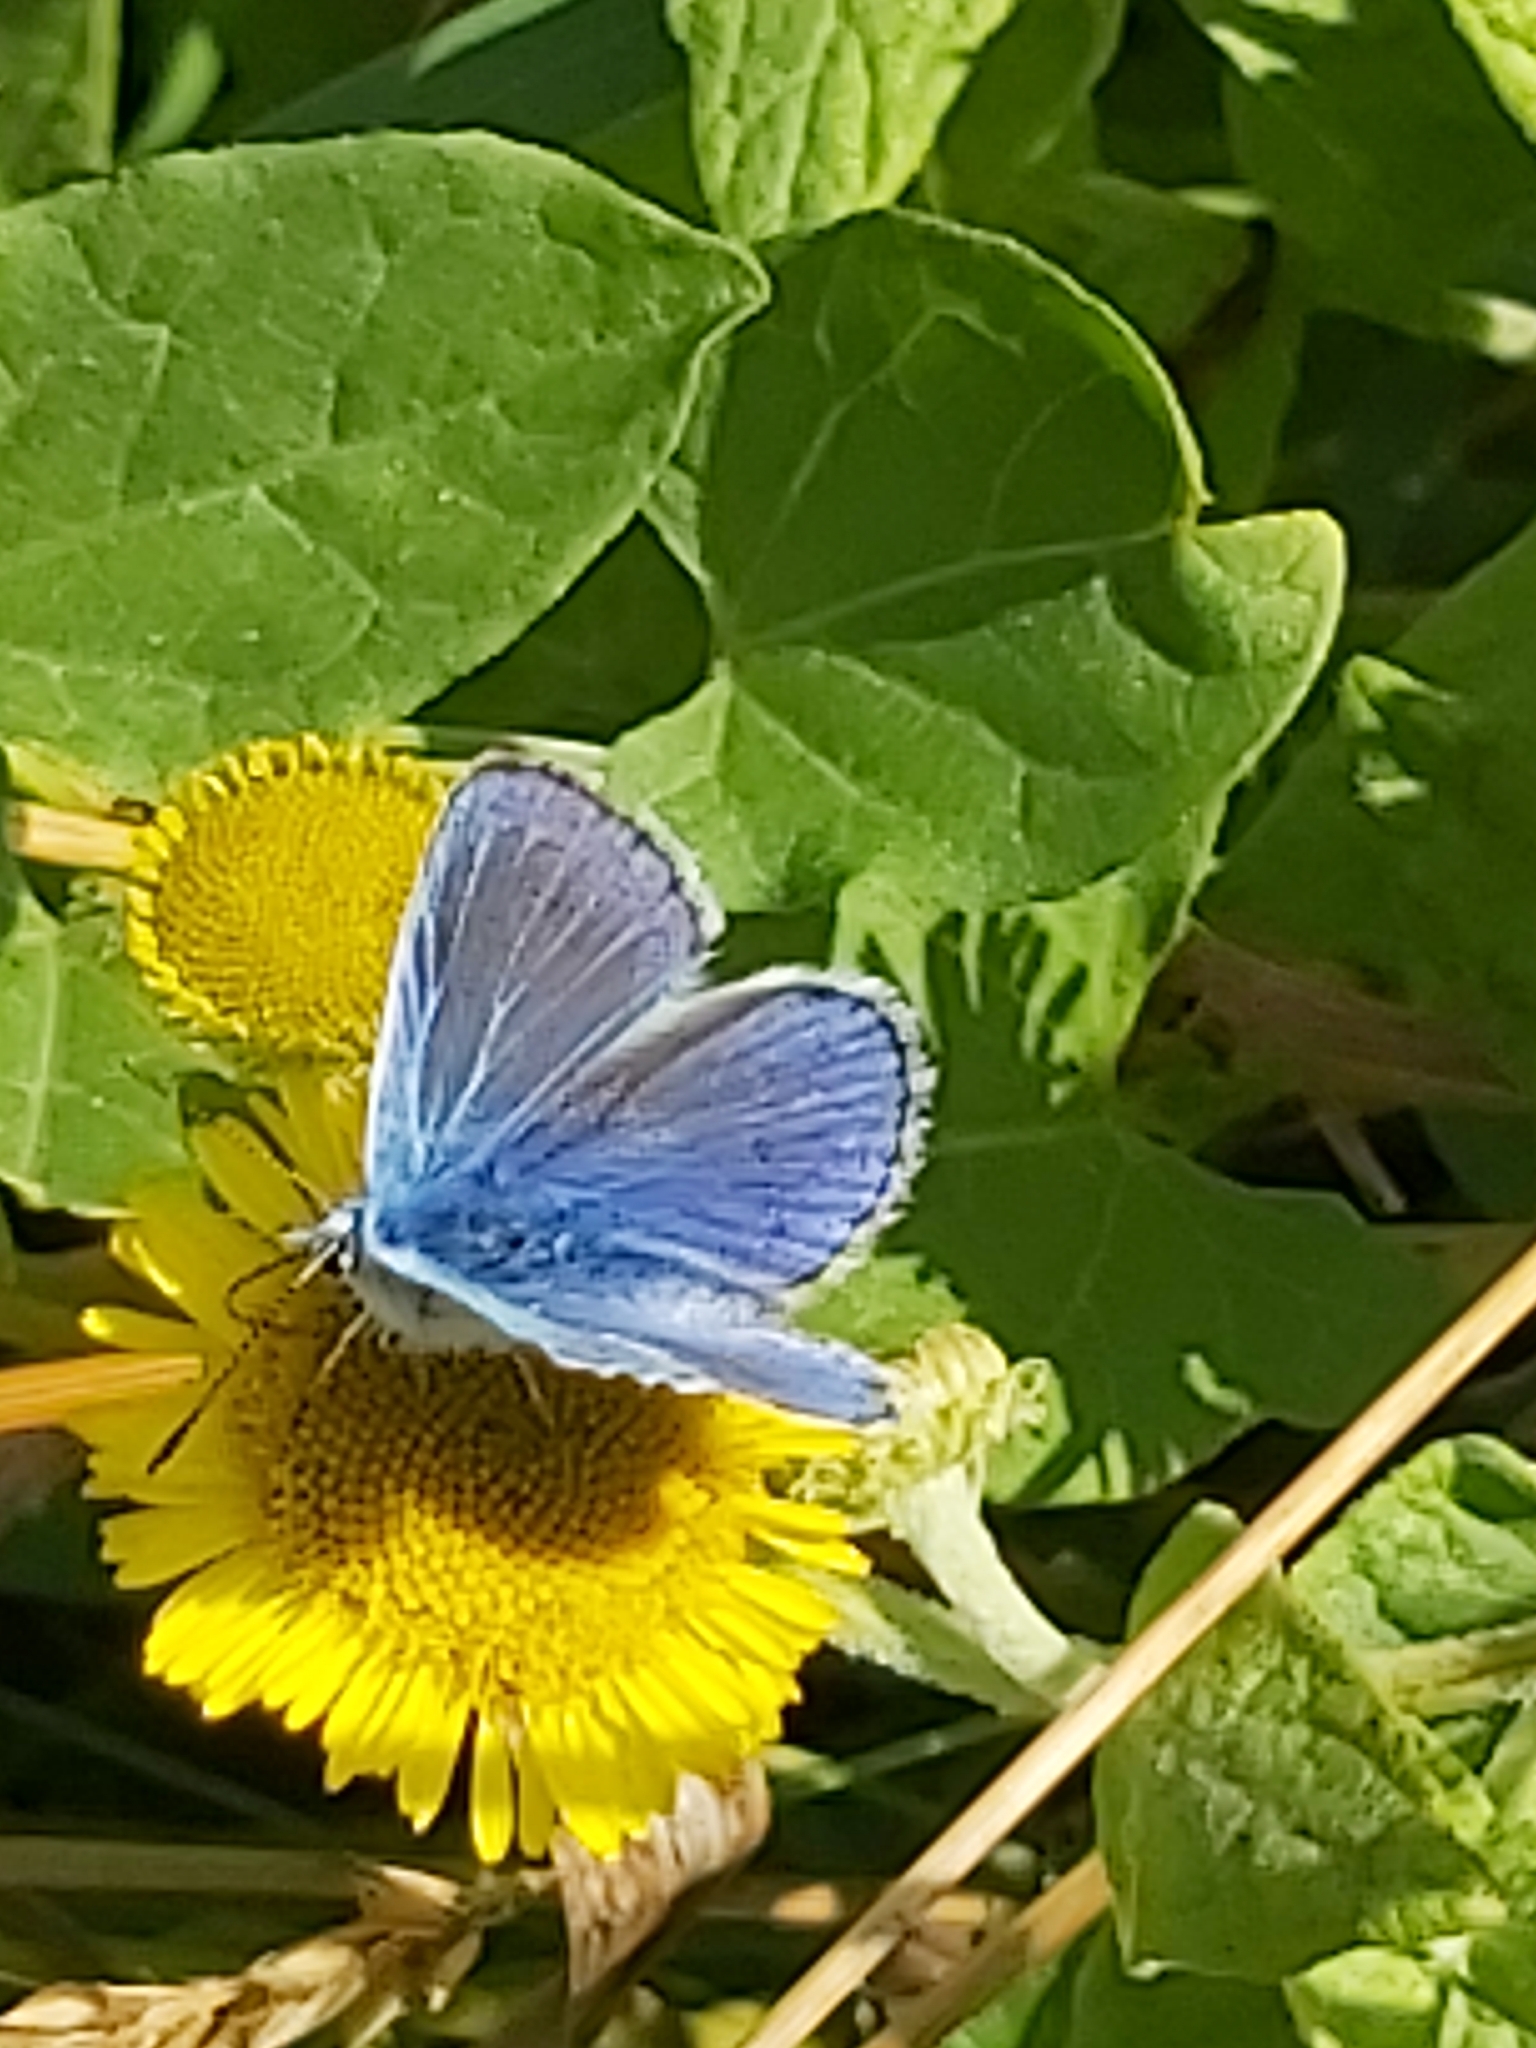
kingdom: Animalia
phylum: Arthropoda
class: Insecta
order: Lepidoptera
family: Lycaenidae
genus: Polyommatus
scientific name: Polyommatus icarus
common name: Common blue
